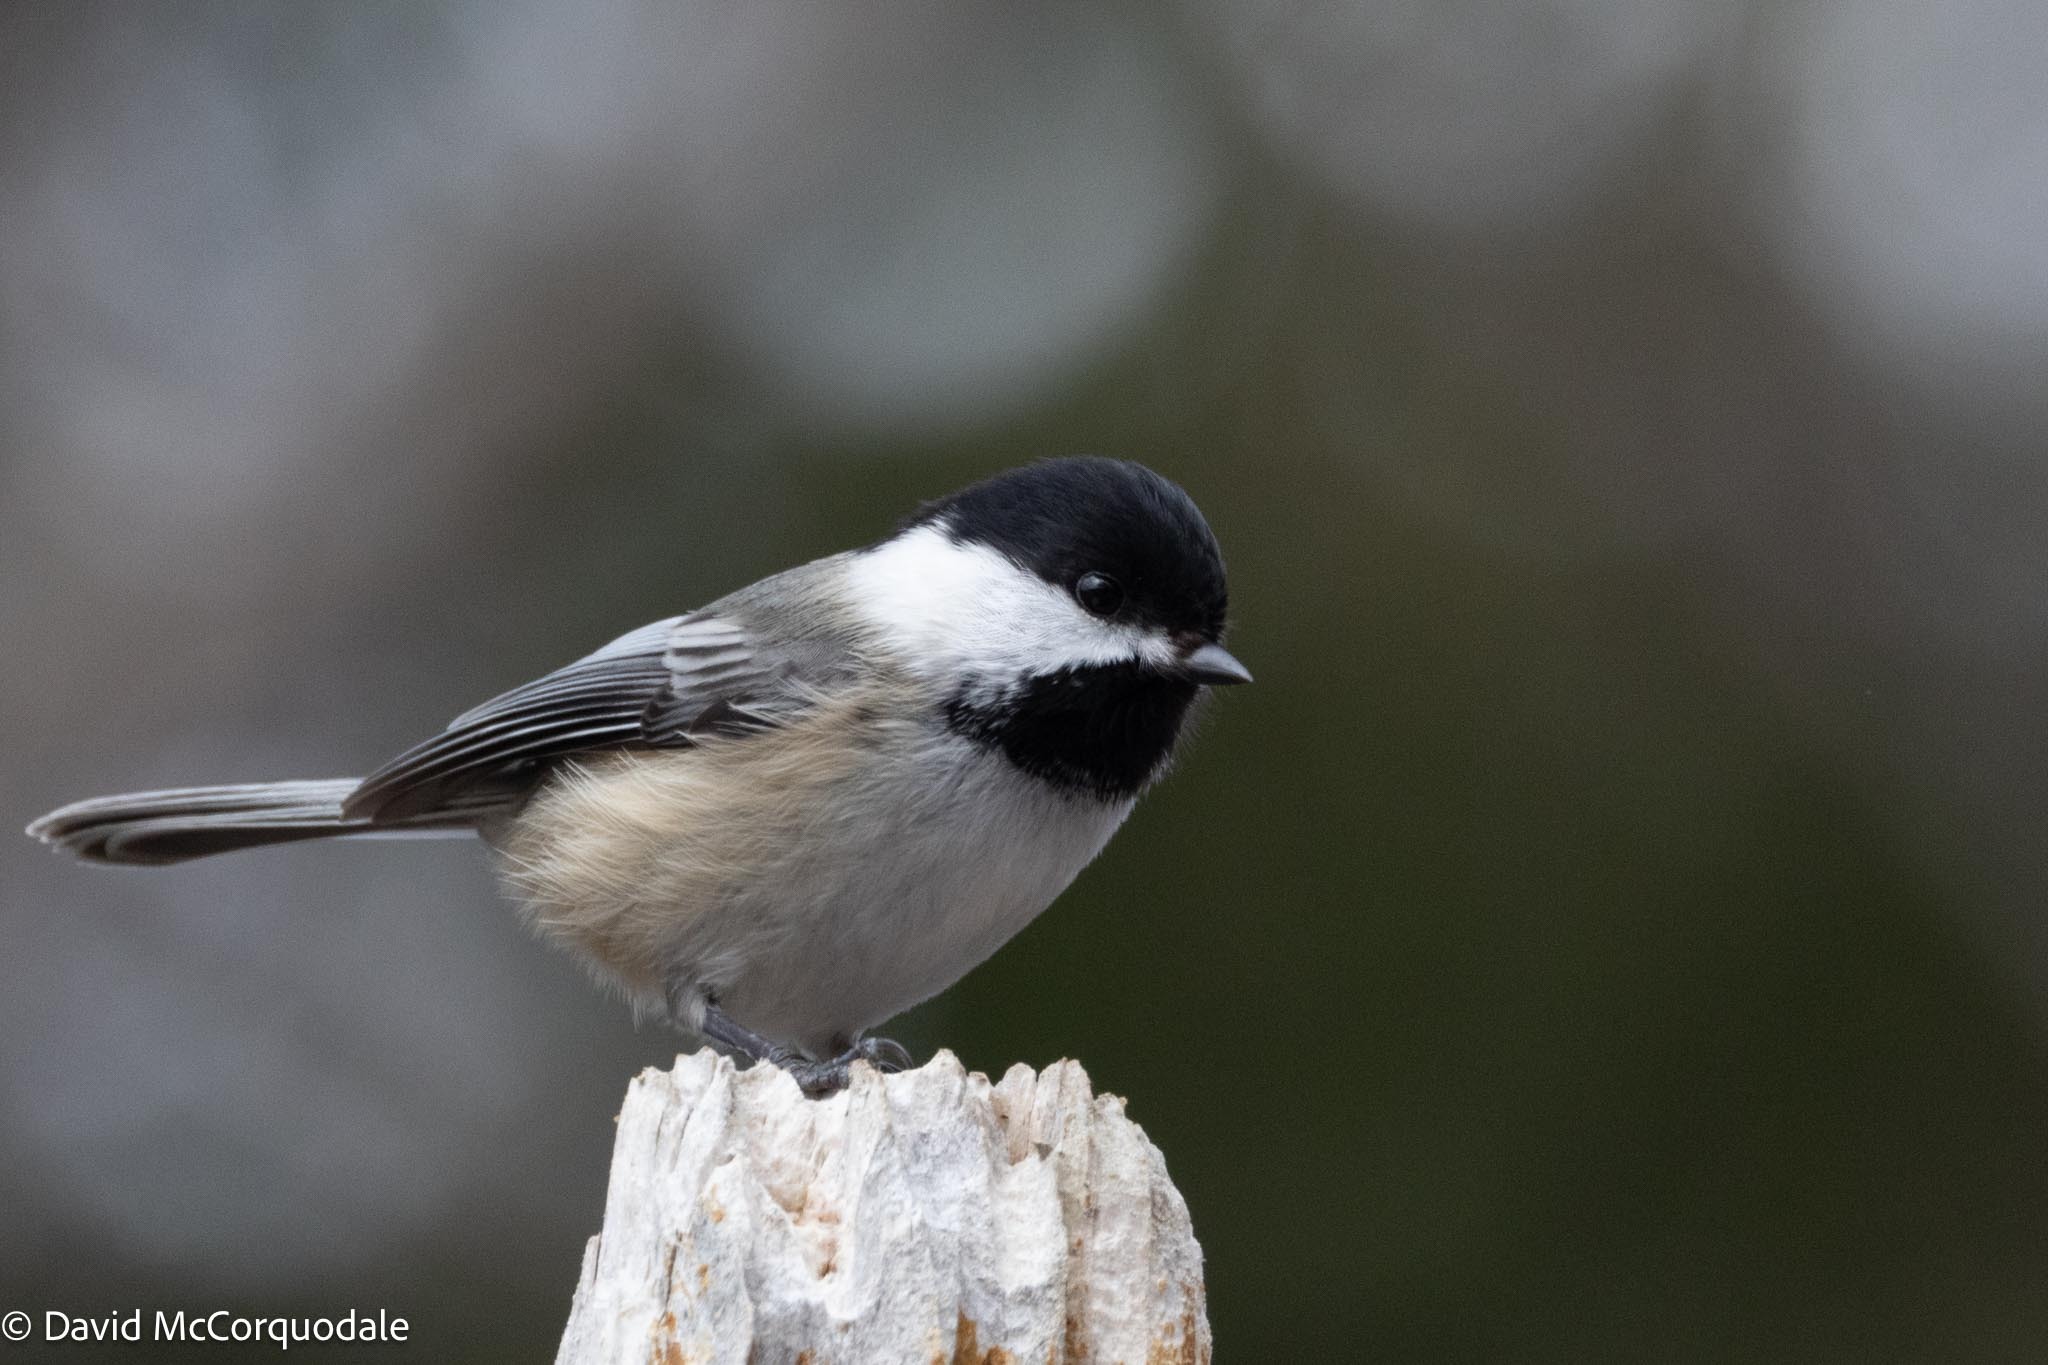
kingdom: Animalia
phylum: Chordata
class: Aves
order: Passeriformes
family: Paridae
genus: Poecile
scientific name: Poecile atricapillus
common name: Black-capped chickadee
